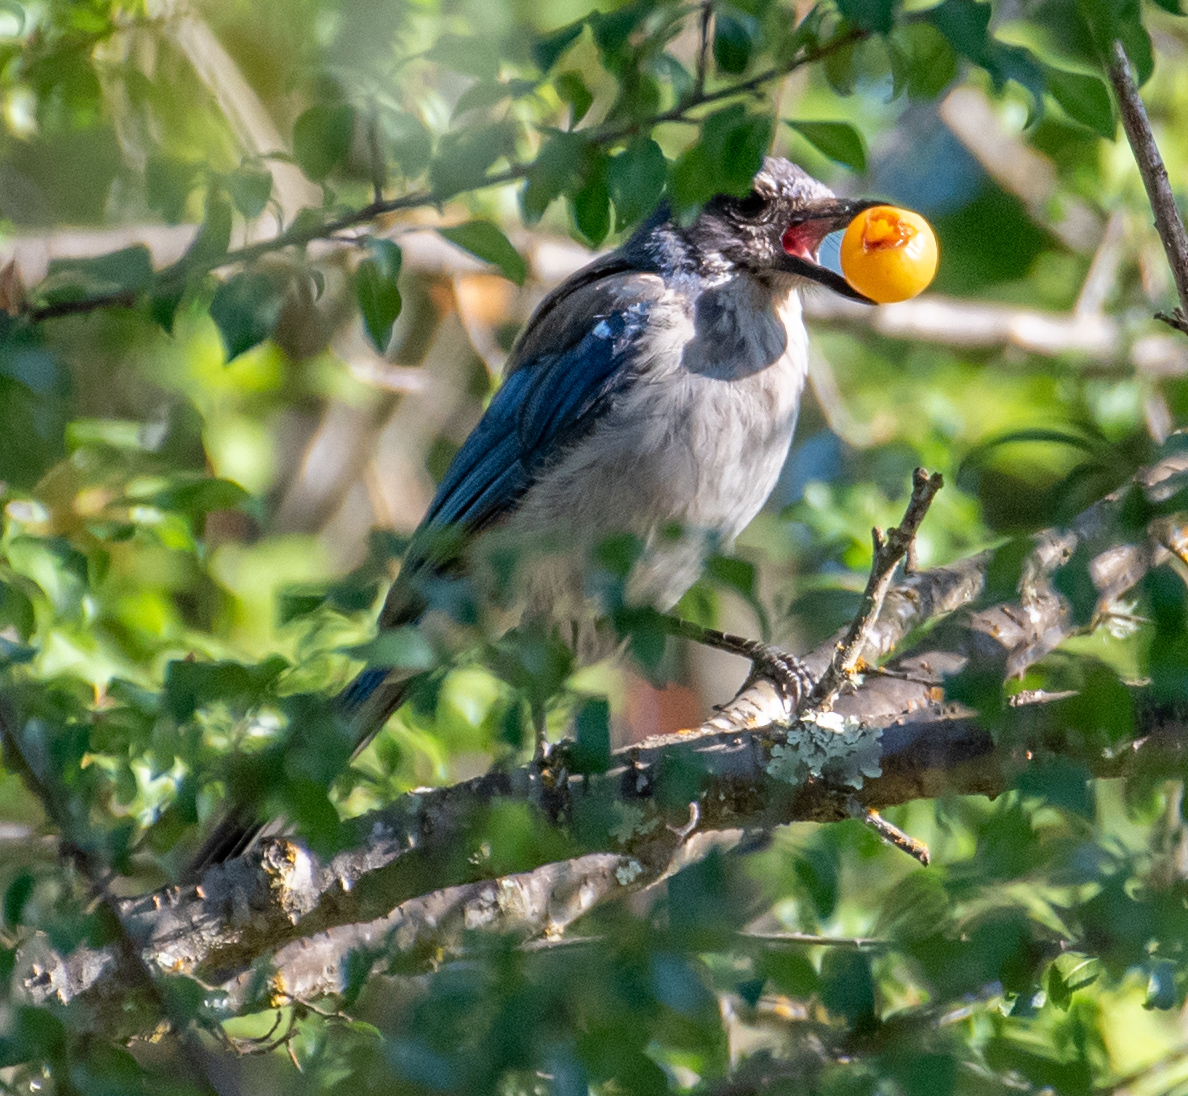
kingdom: Animalia
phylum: Chordata
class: Aves
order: Passeriformes
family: Corvidae
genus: Aphelocoma
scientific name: Aphelocoma californica
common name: California scrub-jay
